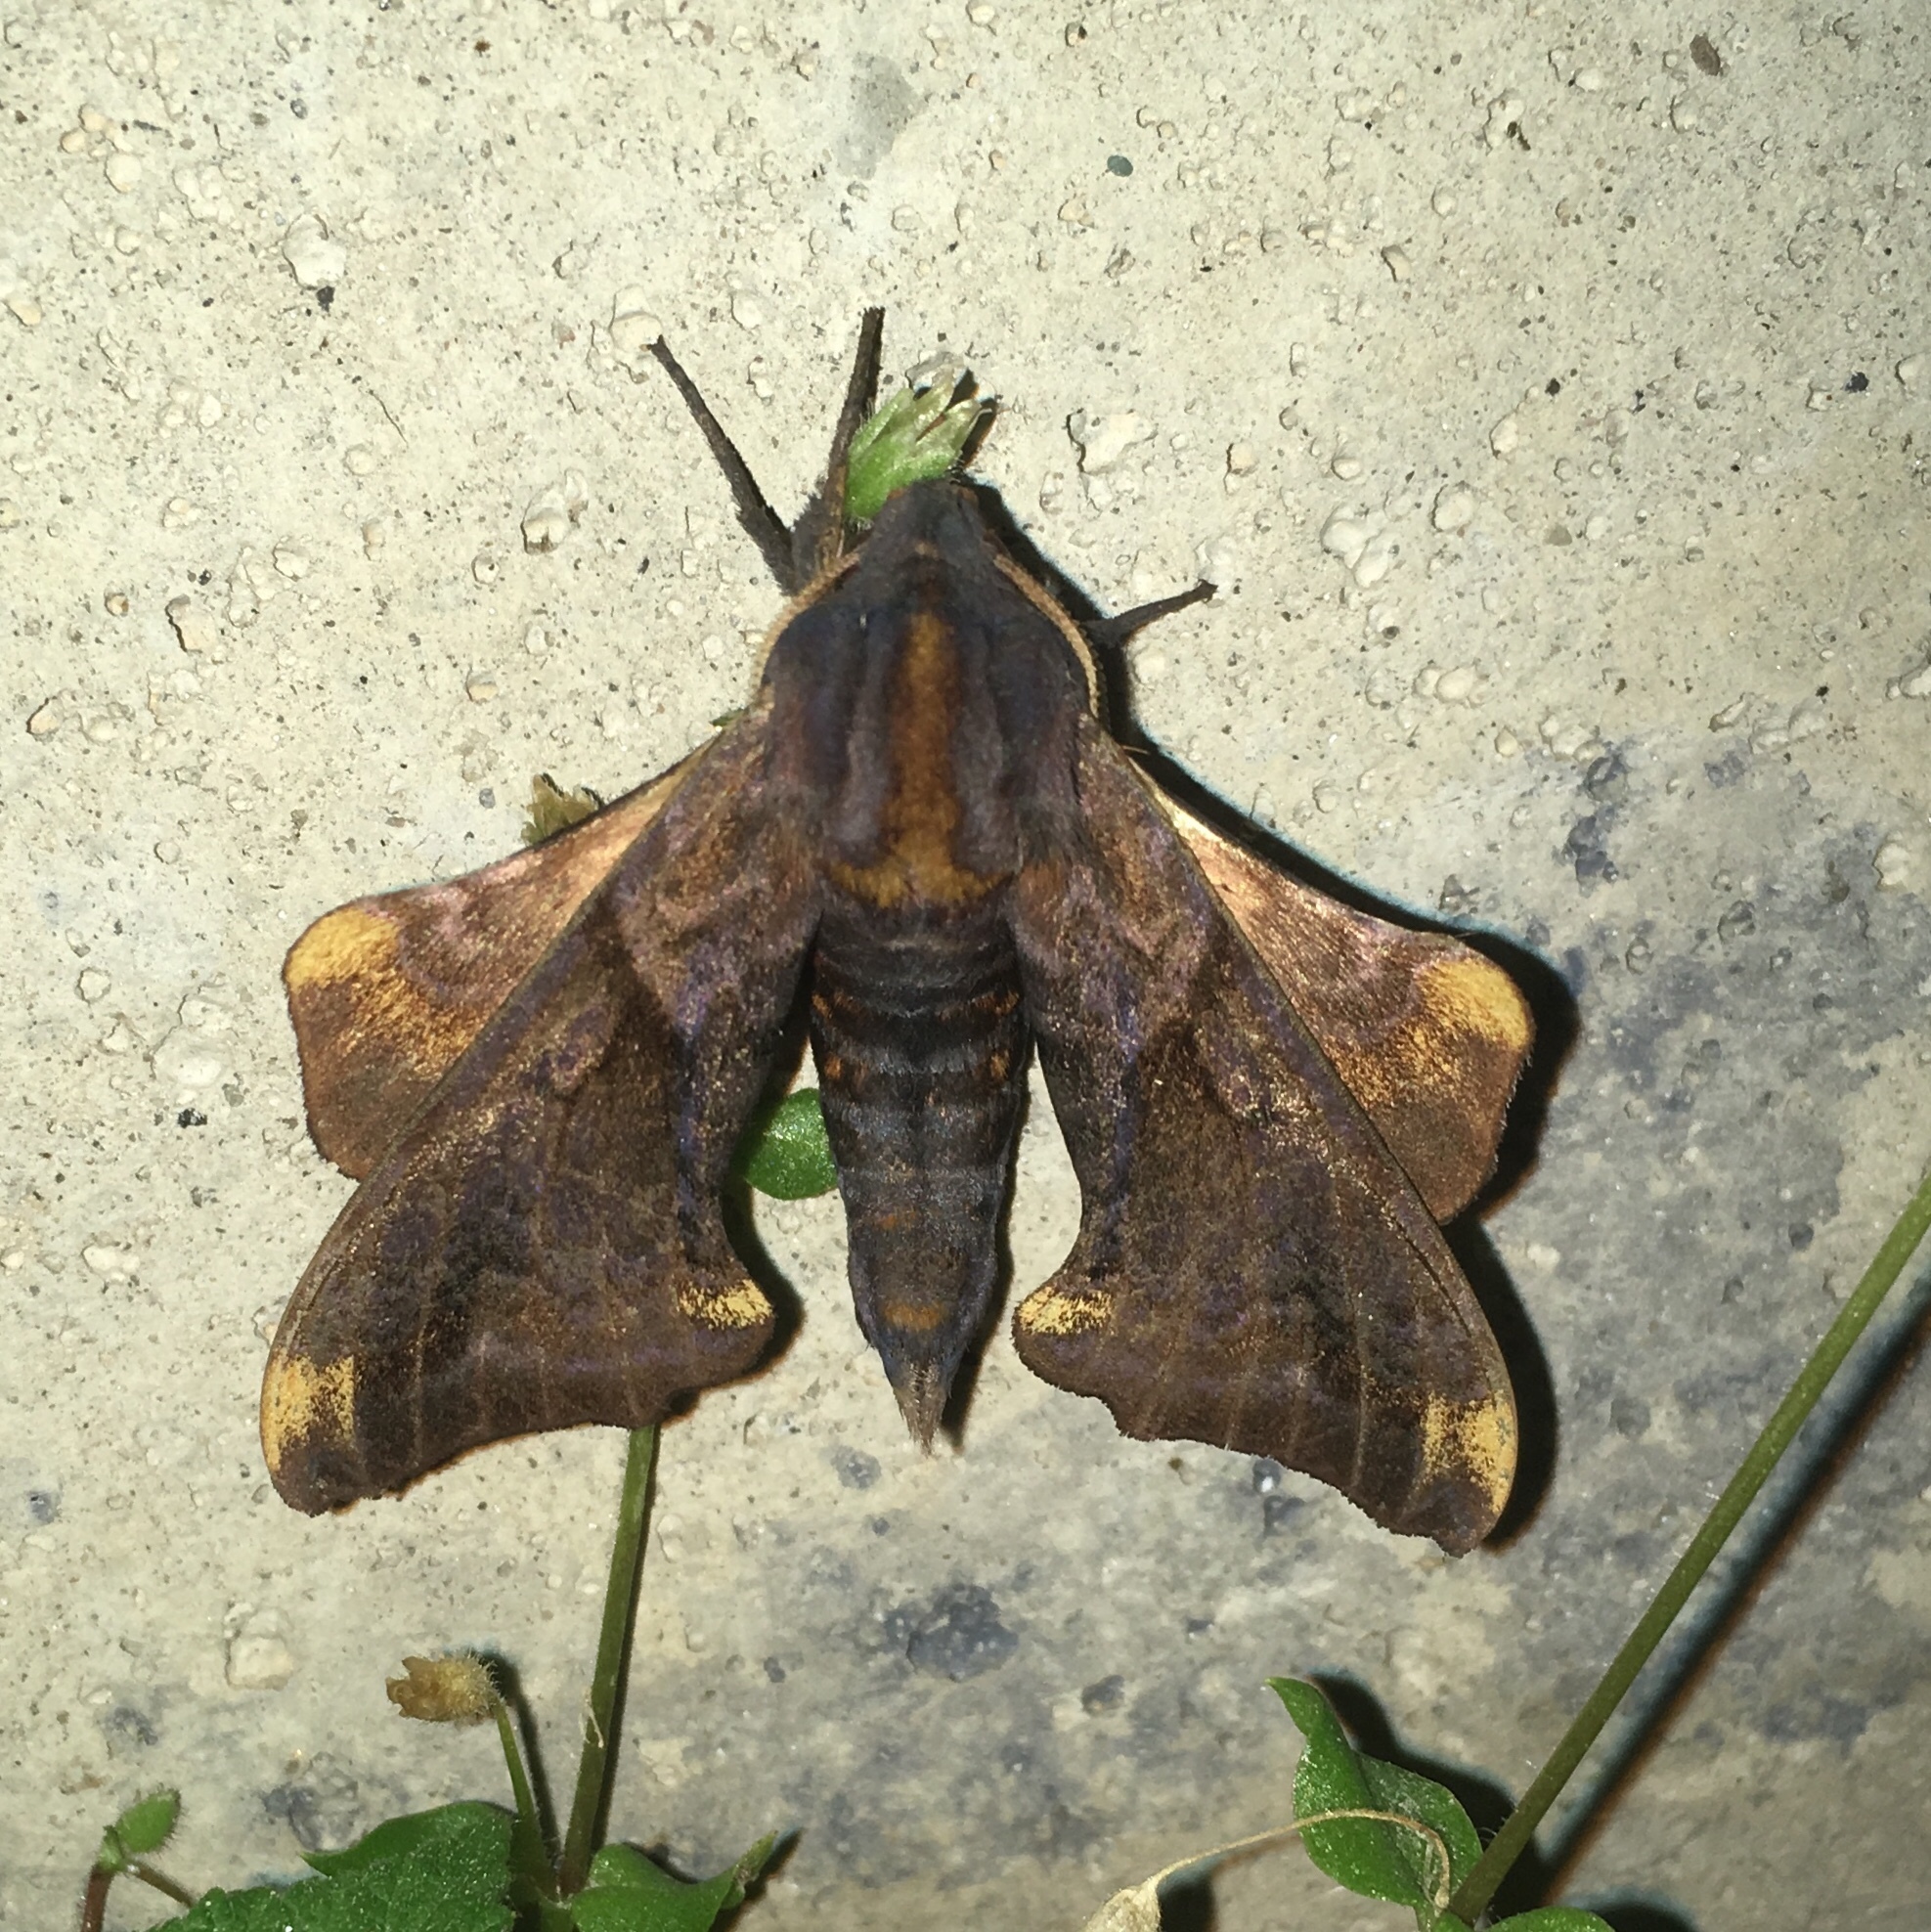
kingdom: Animalia
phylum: Arthropoda
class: Insecta
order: Lepidoptera
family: Sphingidae
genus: Paonias
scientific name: Paonias myops
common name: Small-eyed sphinx
